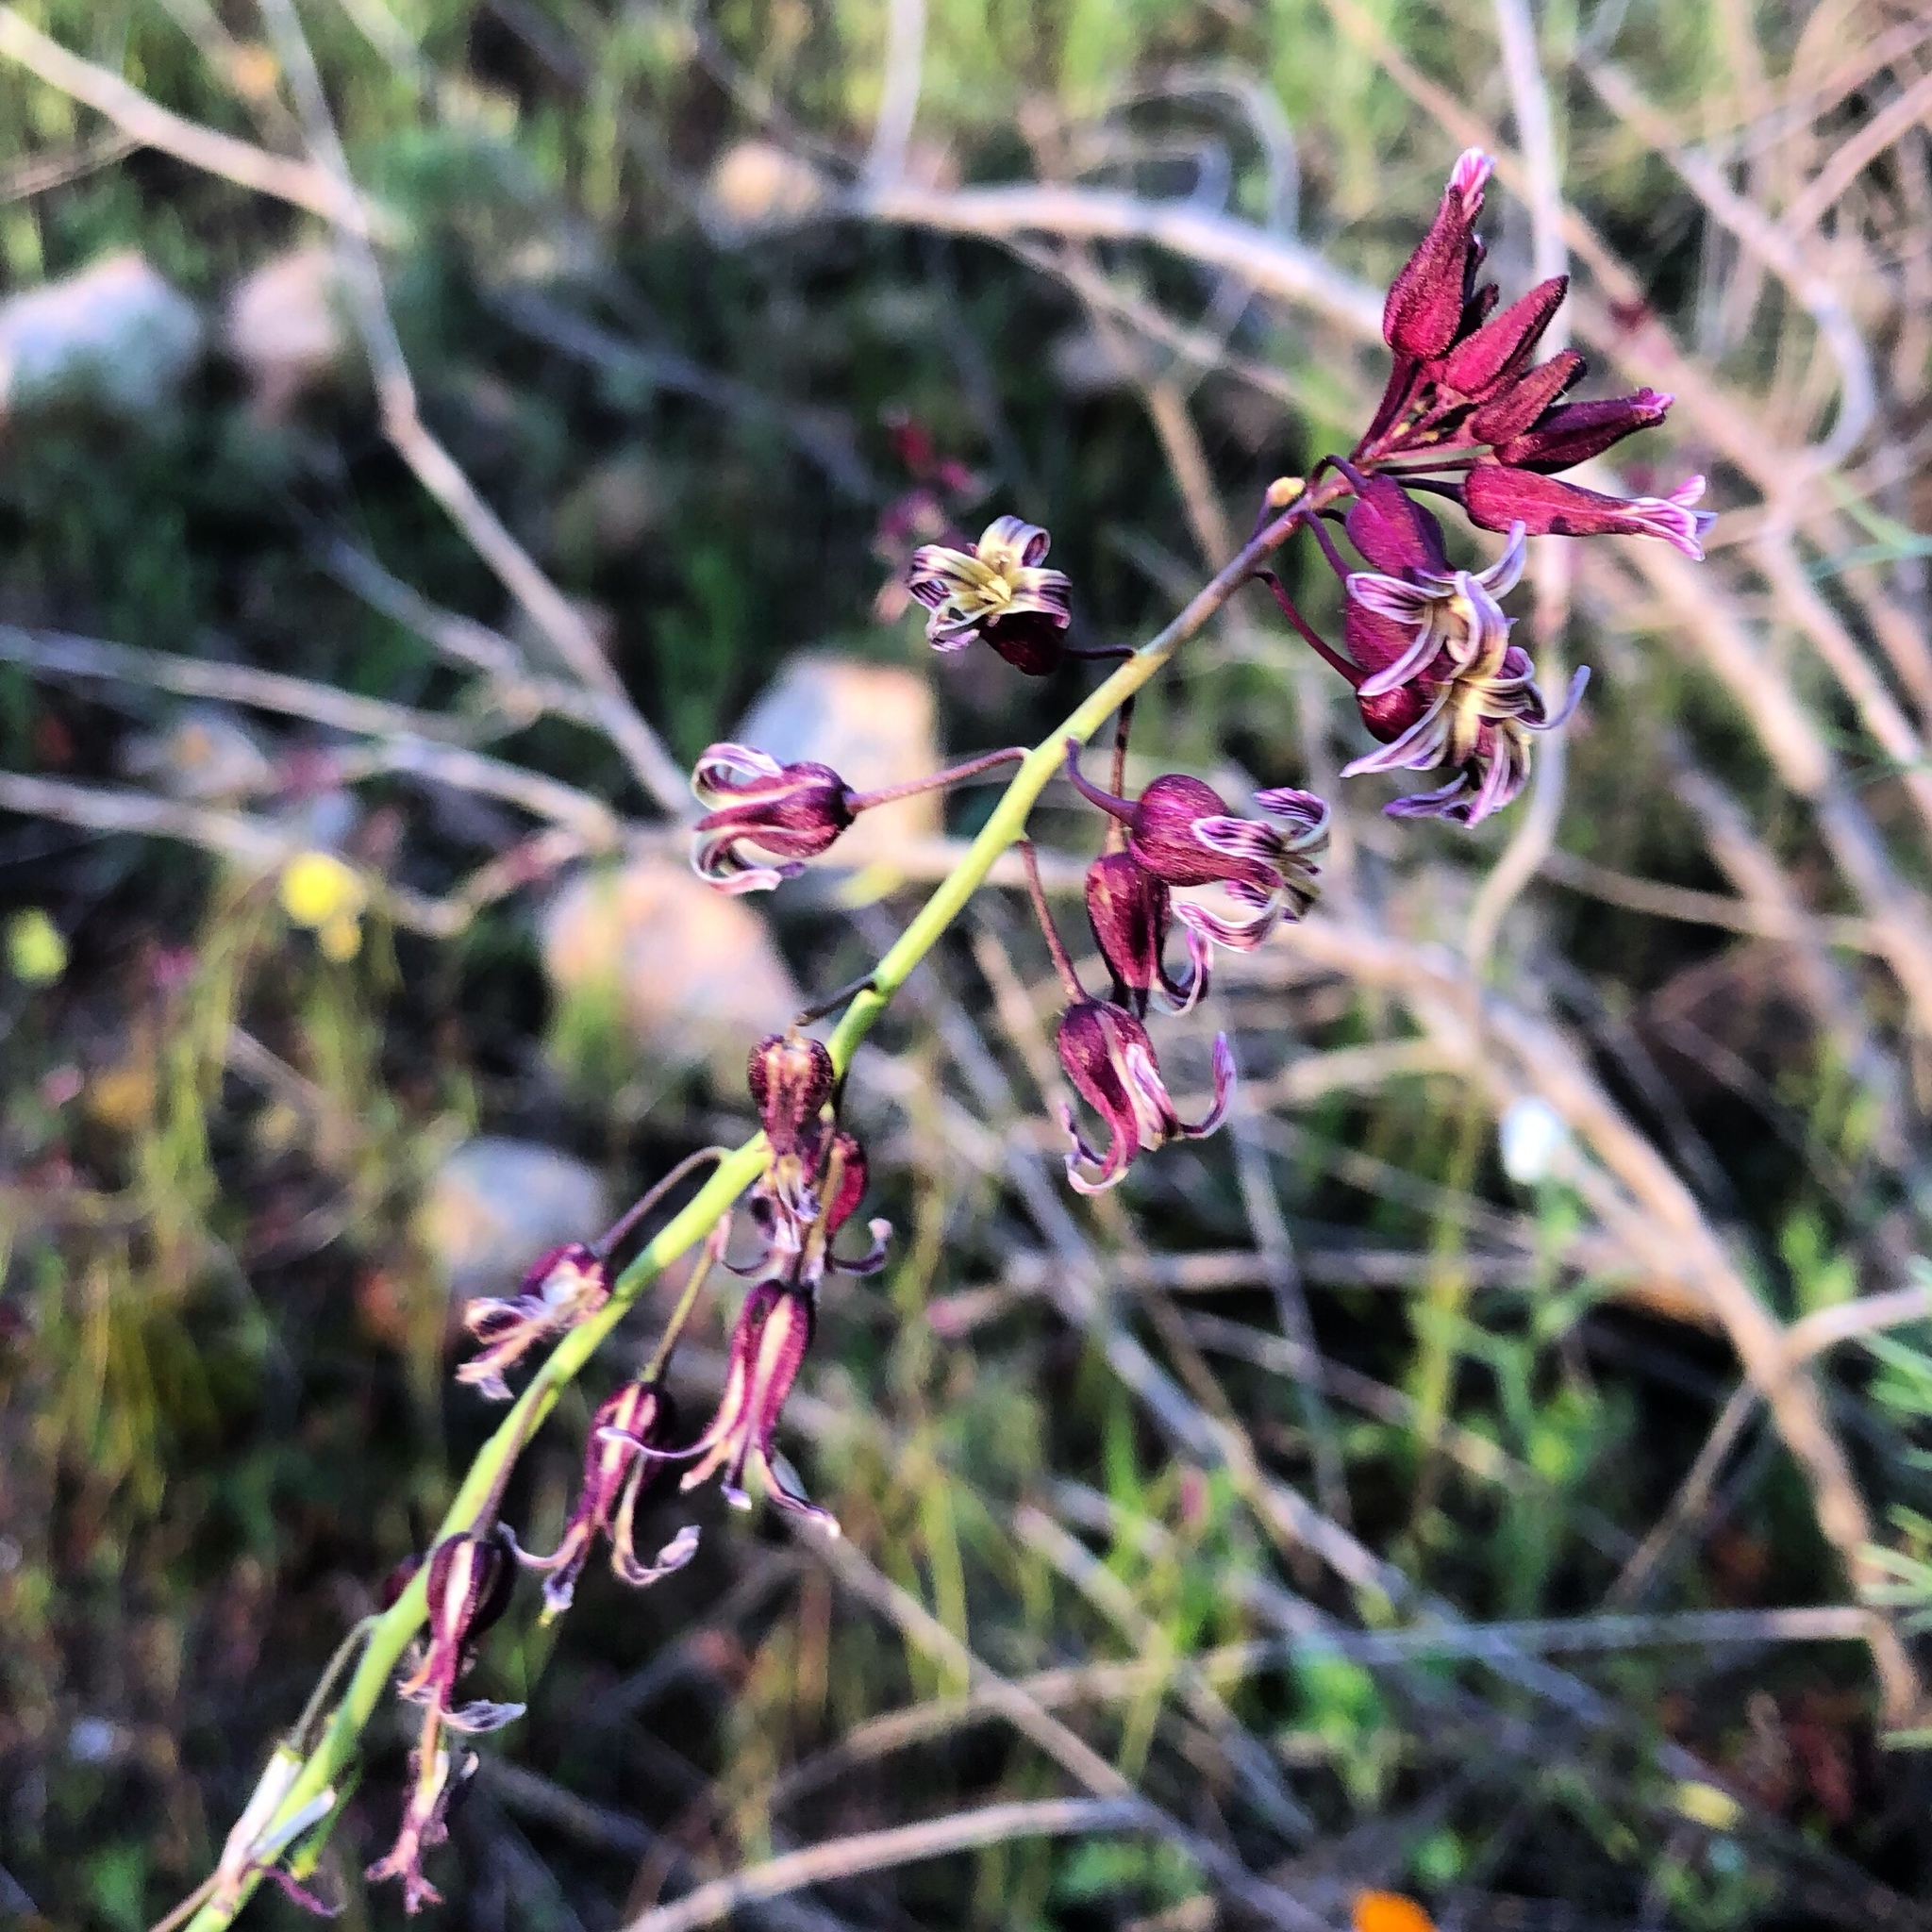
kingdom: Plantae
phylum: Tracheophyta
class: Magnoliopsida
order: Brassicales
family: Brassicaceae
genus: Streptanthus
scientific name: Streptanthus heterophyllus
